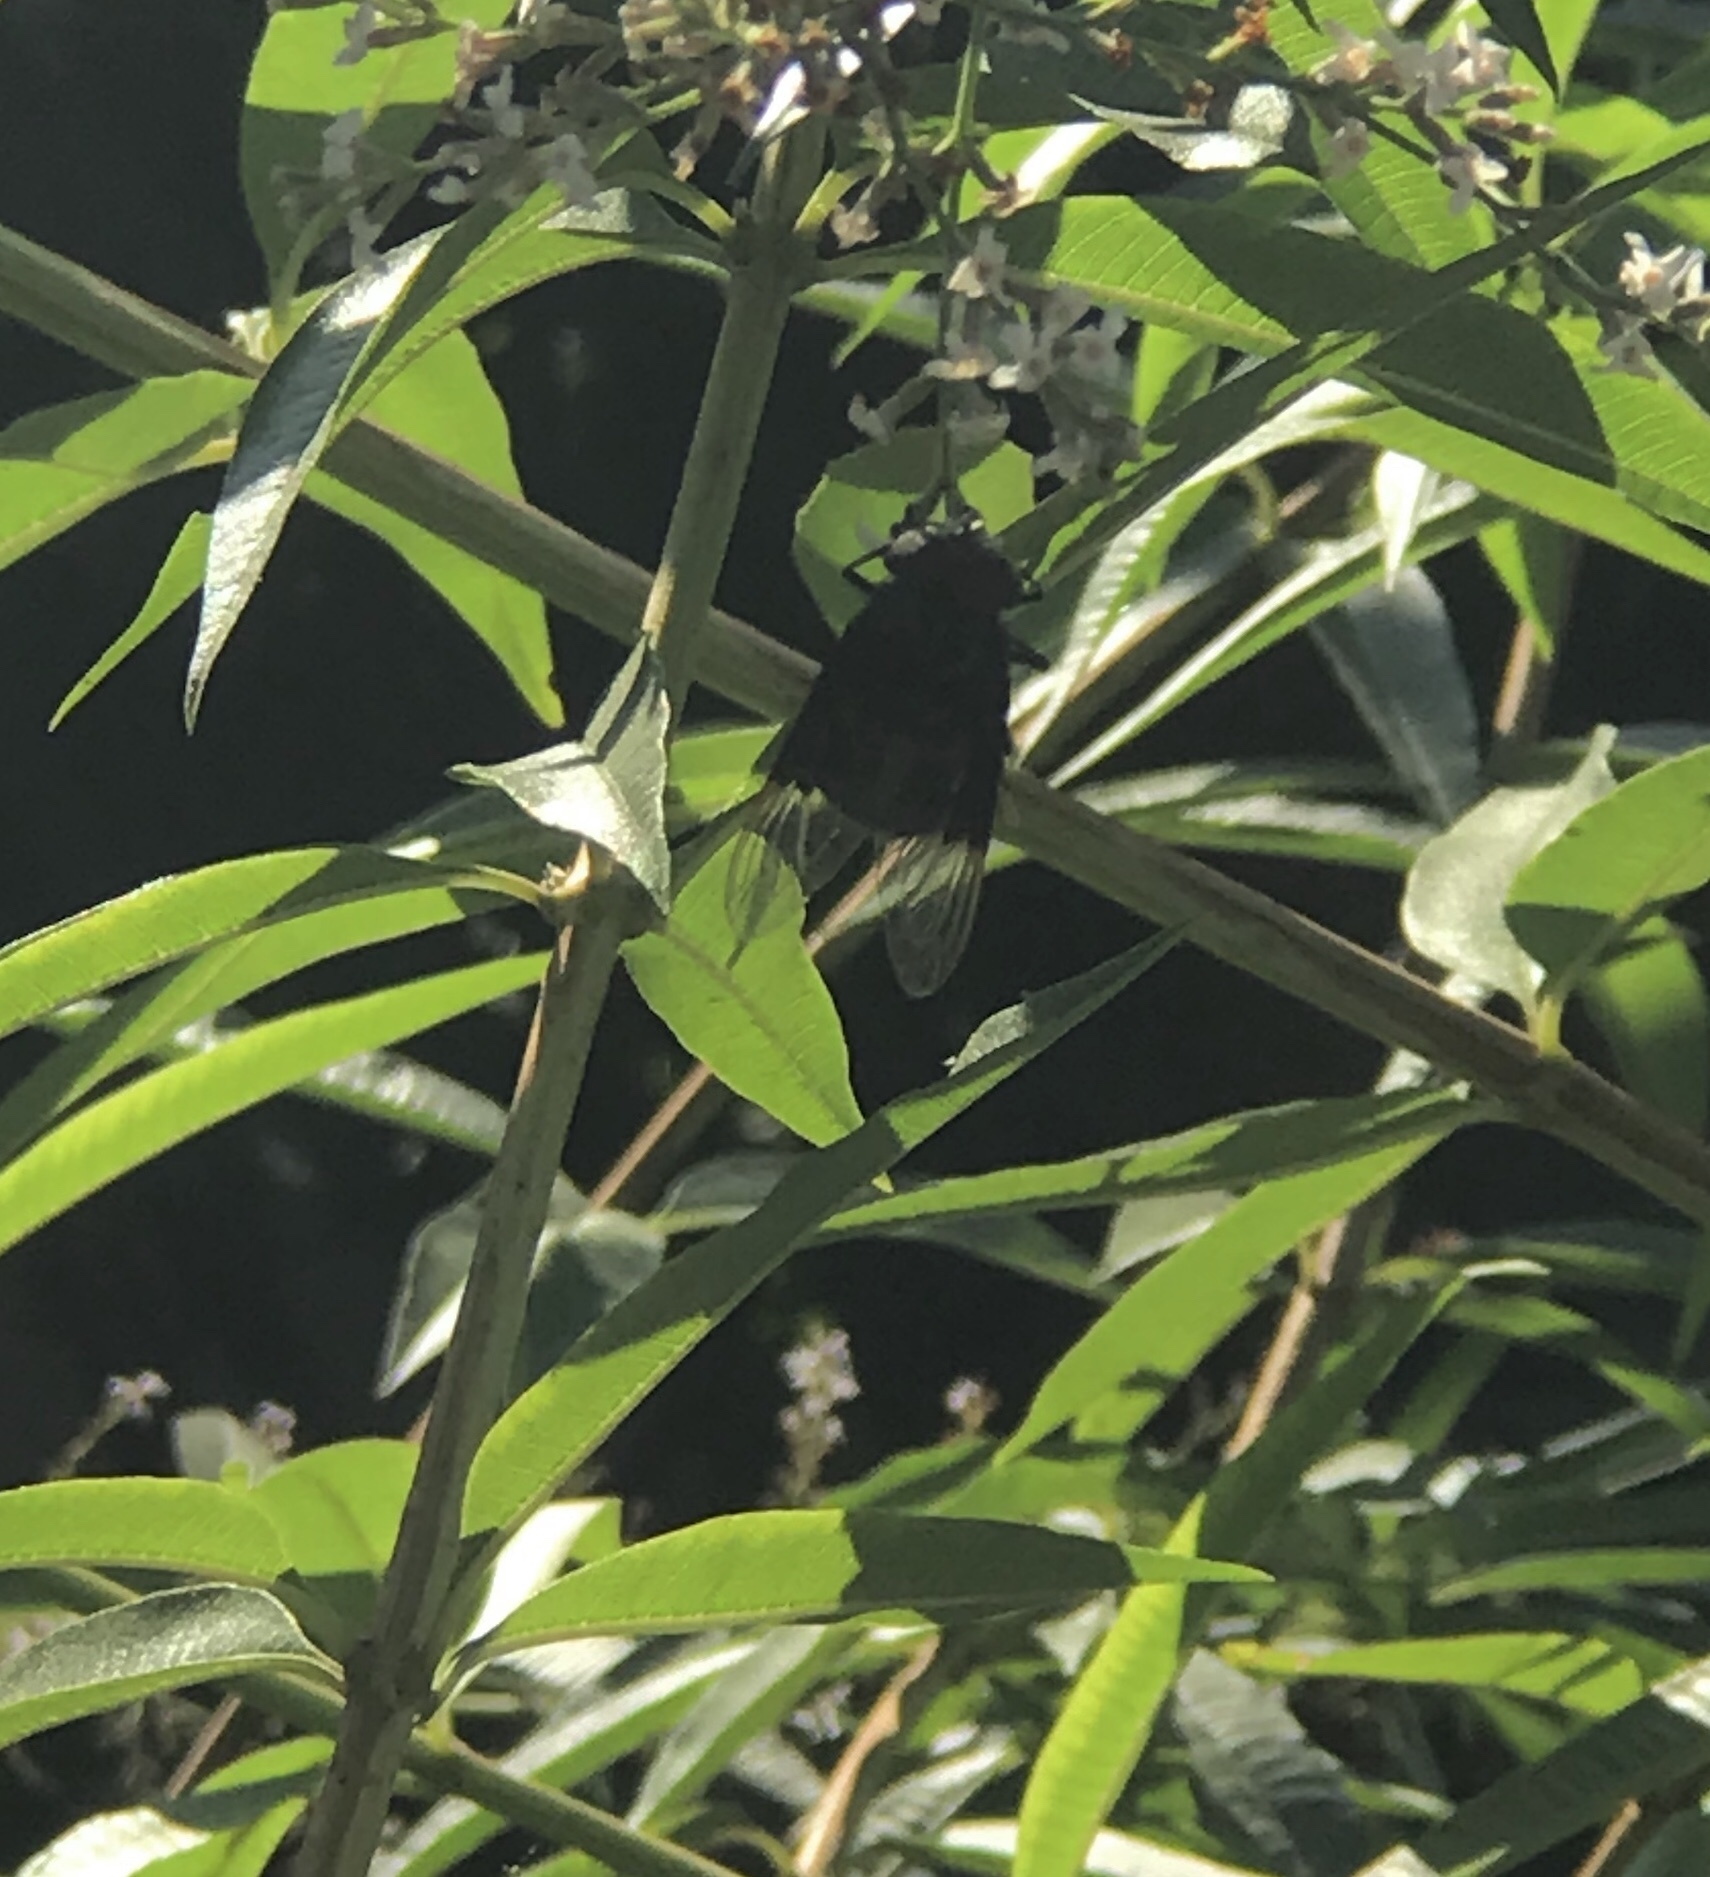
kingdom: Animalia
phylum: Arthropoda
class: Insecta
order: Diptera
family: Syrphidae
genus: Copestylum
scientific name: Copestylum
